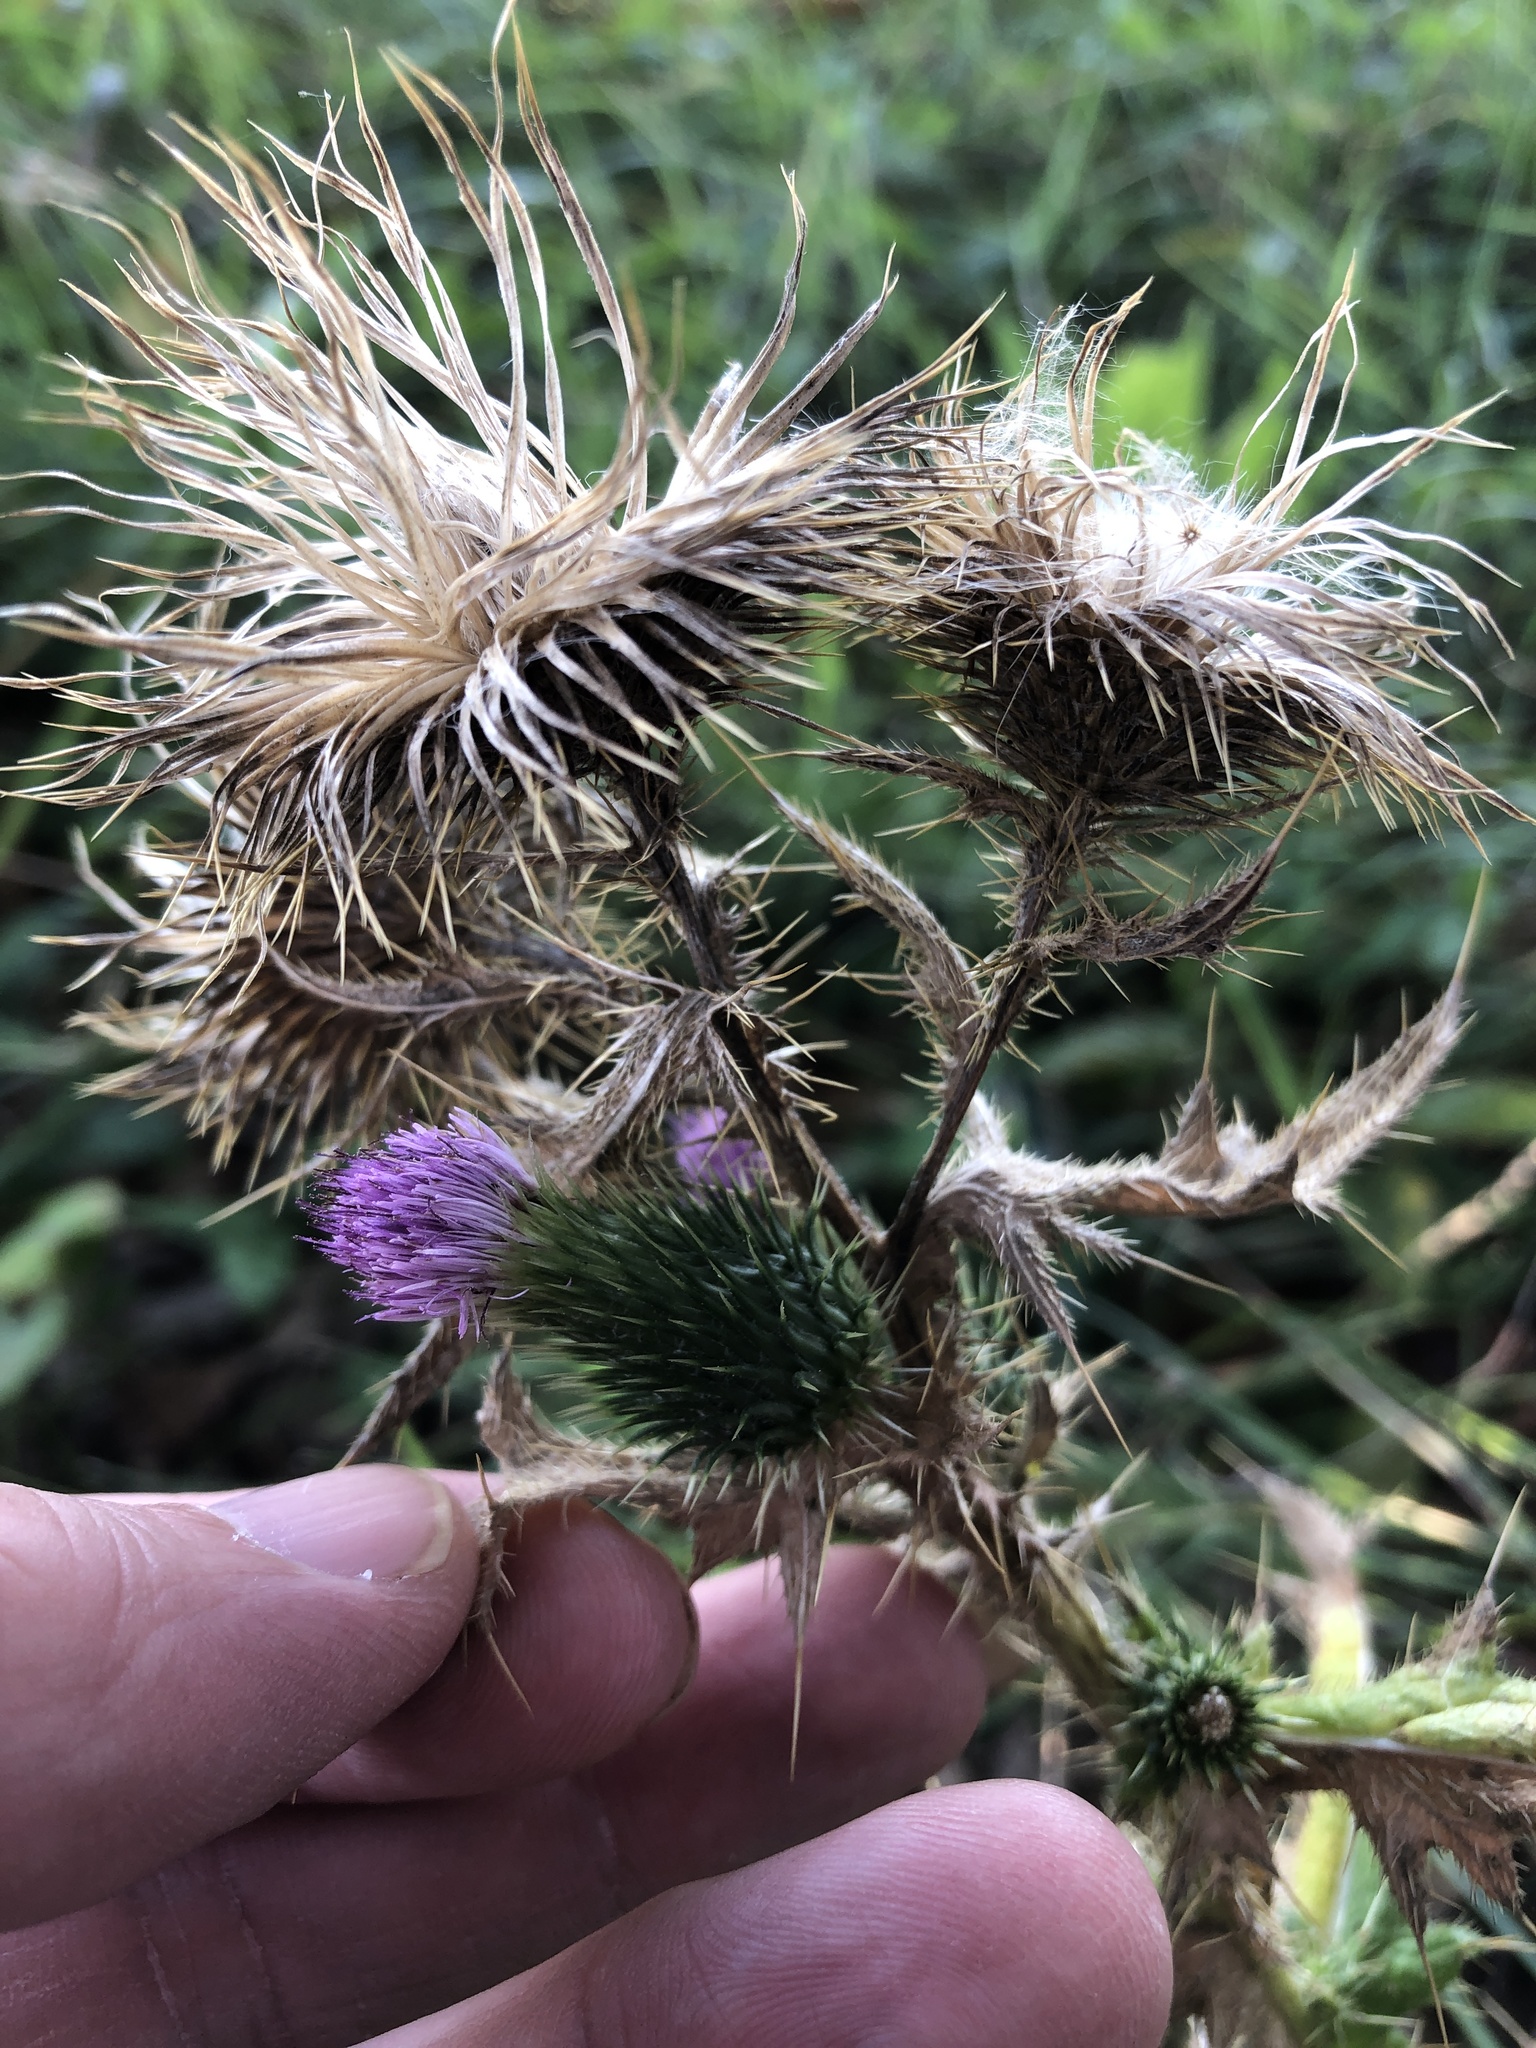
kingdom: Plantae
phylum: Tracheophyta
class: Magnoliopsida
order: Asterales
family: Asteraceae
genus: Cirsium
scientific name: Cirsium vulgare
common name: Bull thistle
